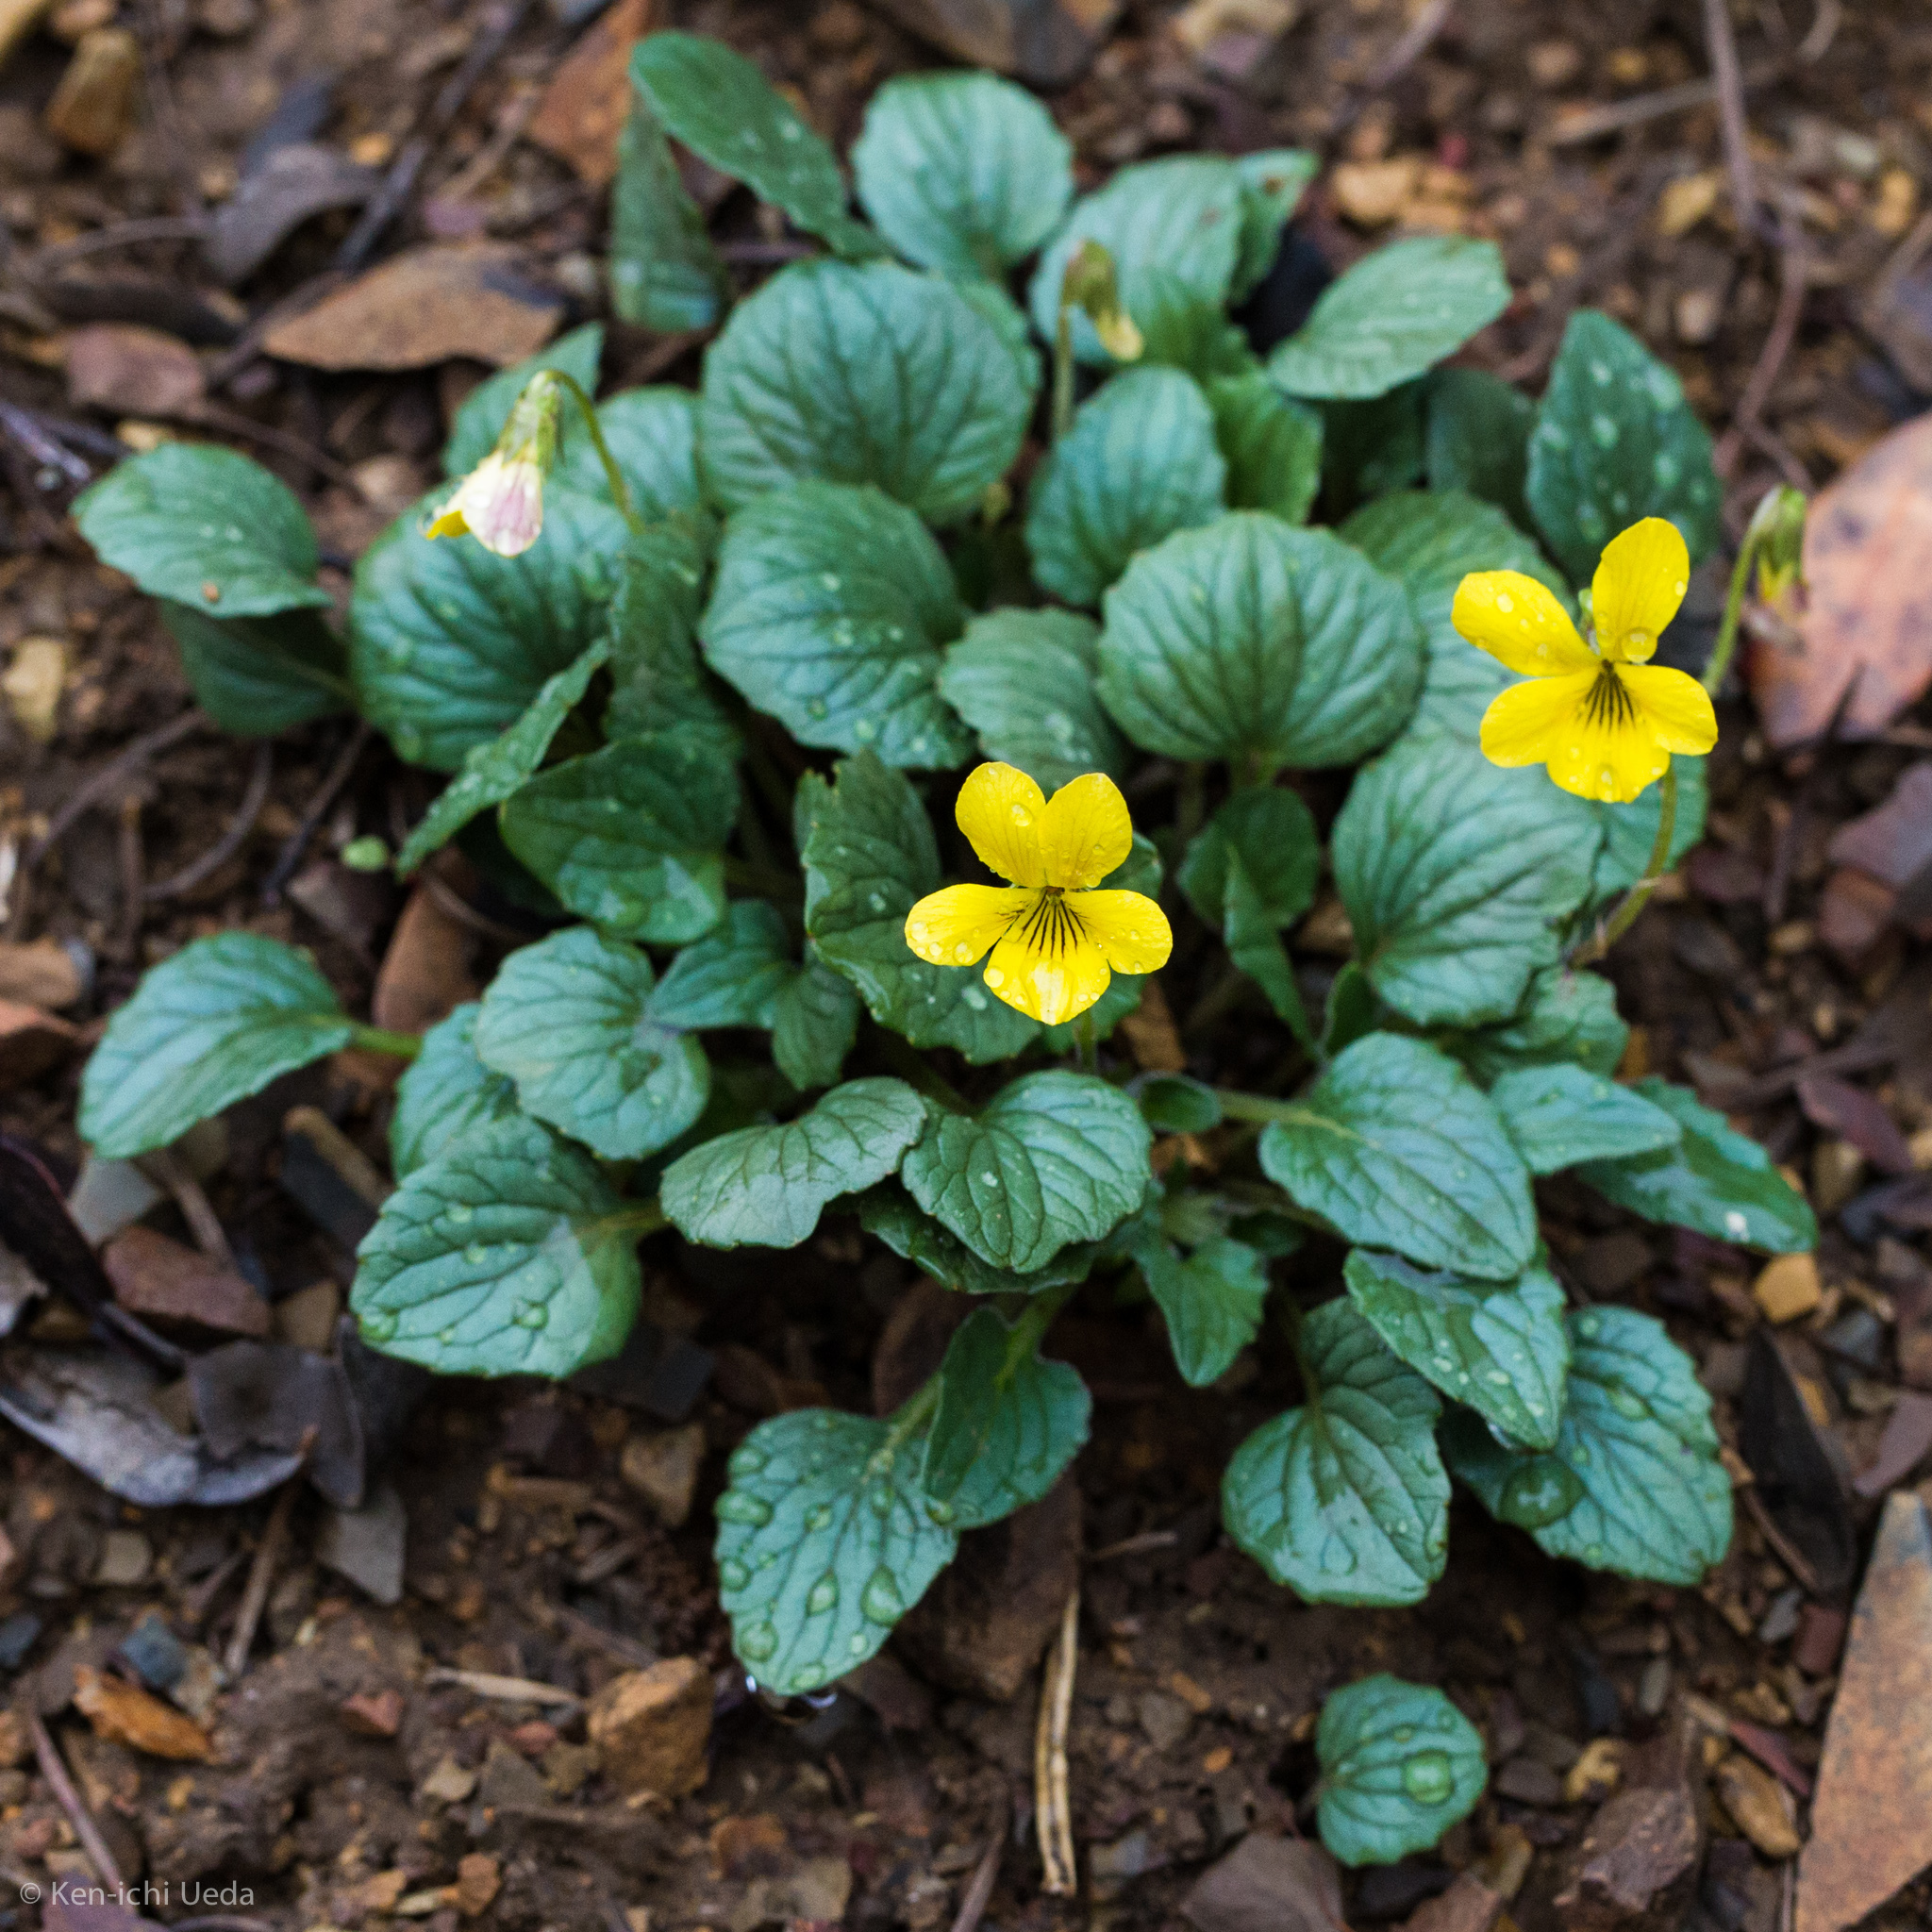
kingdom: Plantae
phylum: Tracheophyta
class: Magnoliopsida
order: Malpighiales
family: Violaceae
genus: Viola
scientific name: Viola purpurea
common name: Pine violet
